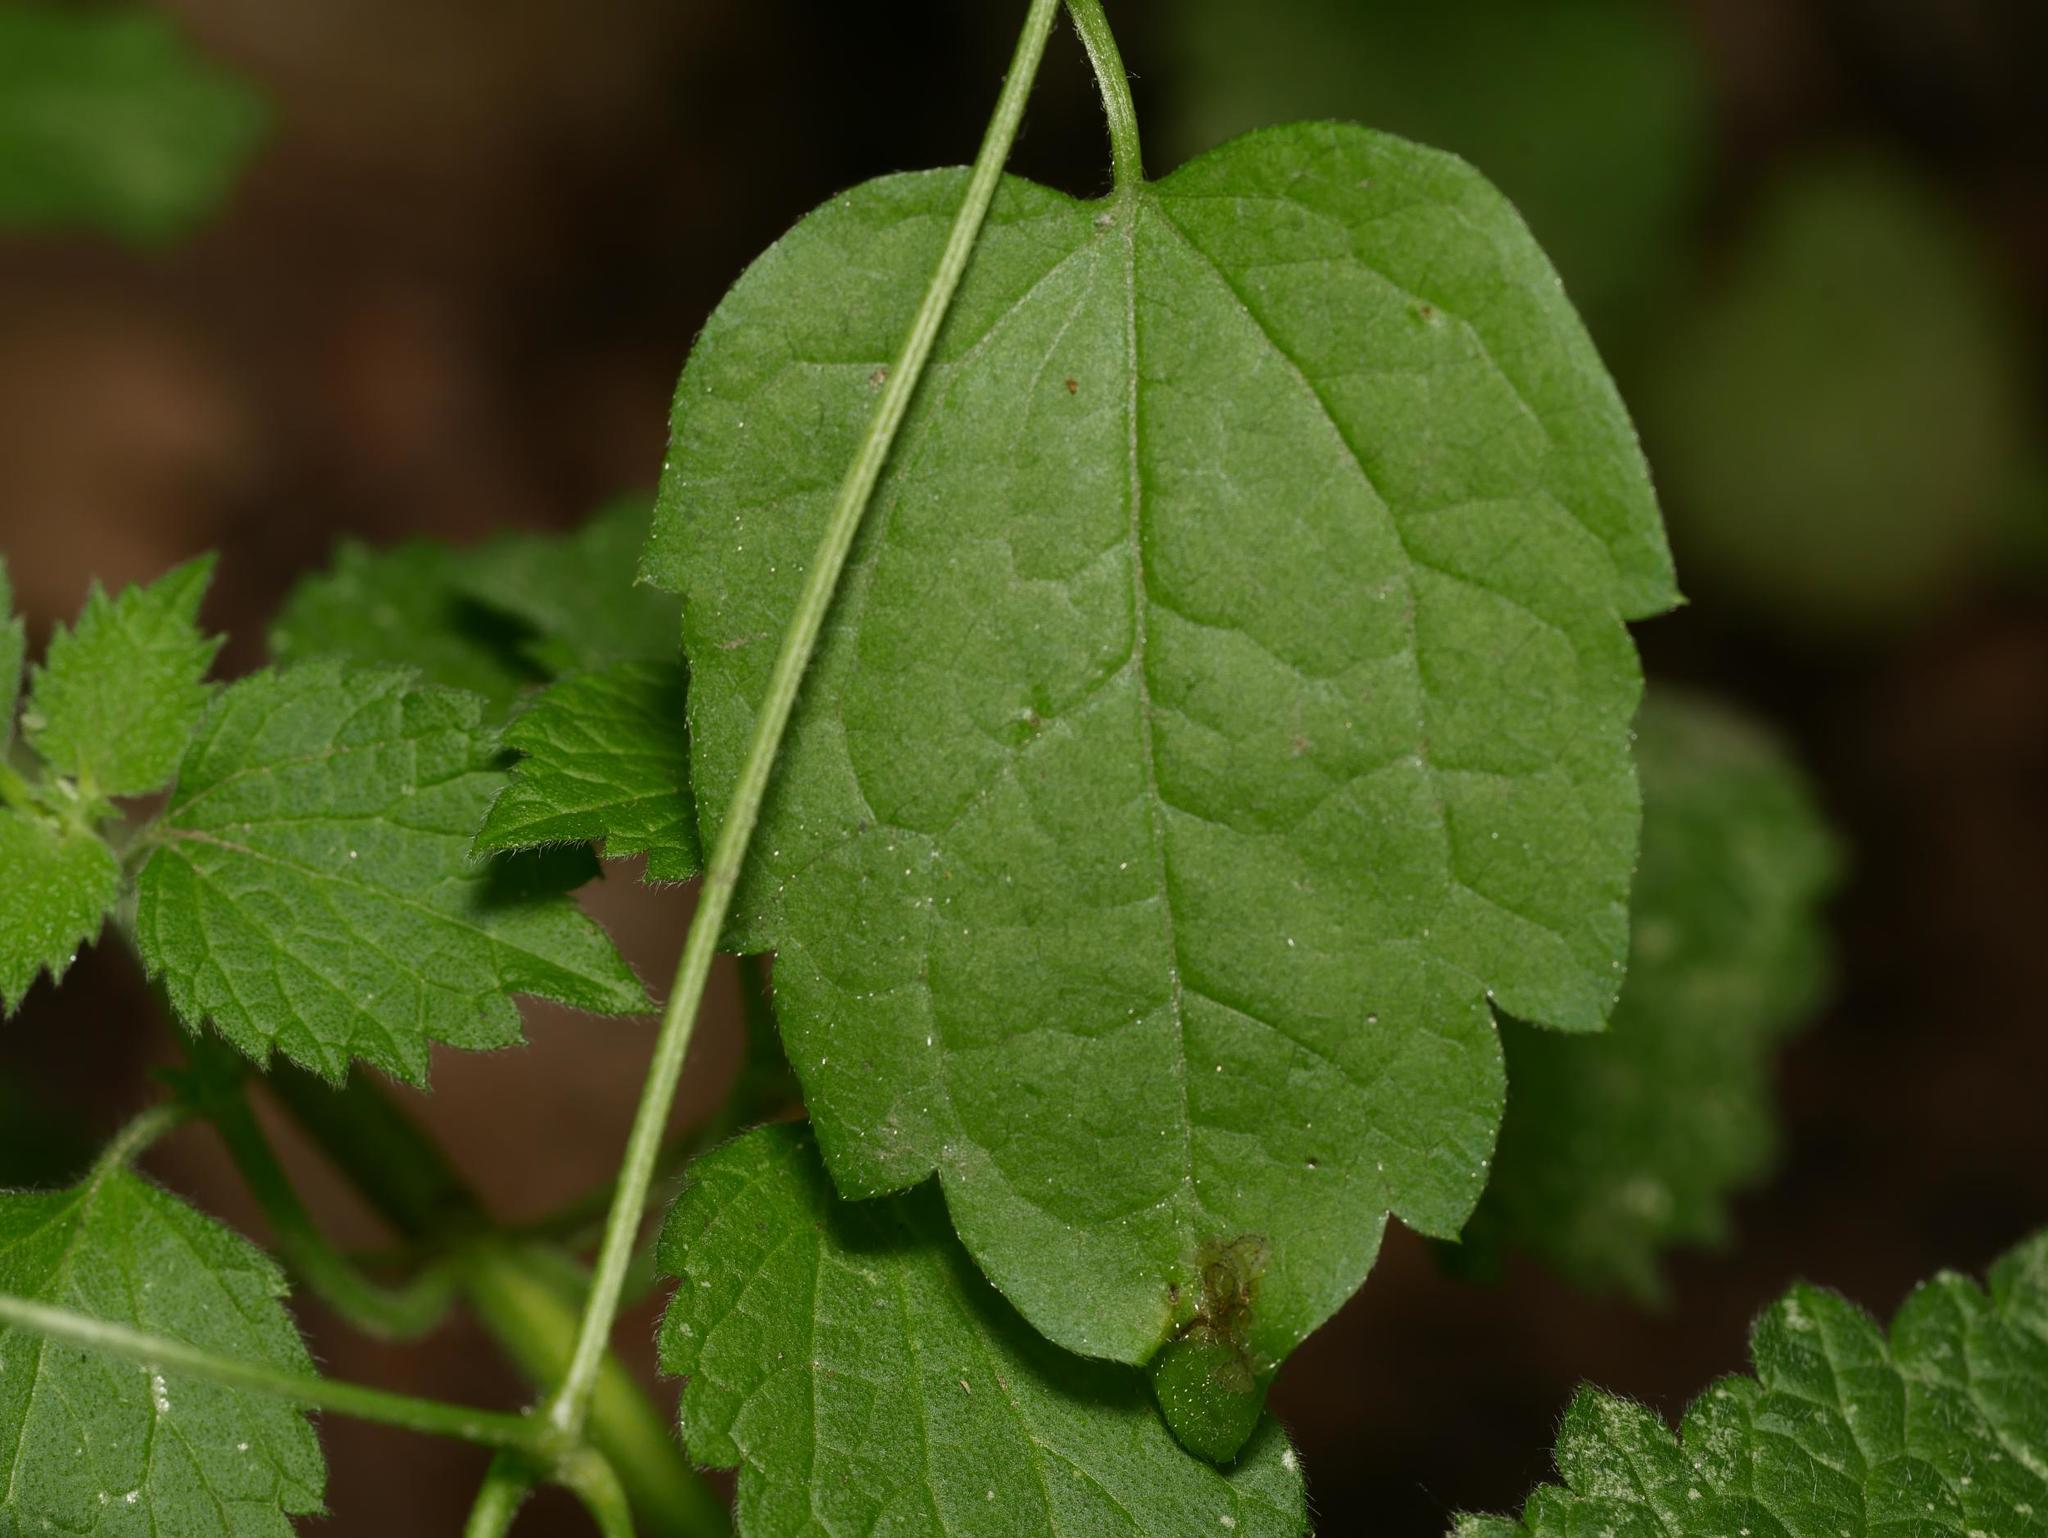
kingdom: Plantae
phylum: Tracheophyta
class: Magnoliopsida
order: Ranunculales
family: Ranunculaceae
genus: Clematis
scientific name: Clematis vitalba
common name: Evergreen clematis
